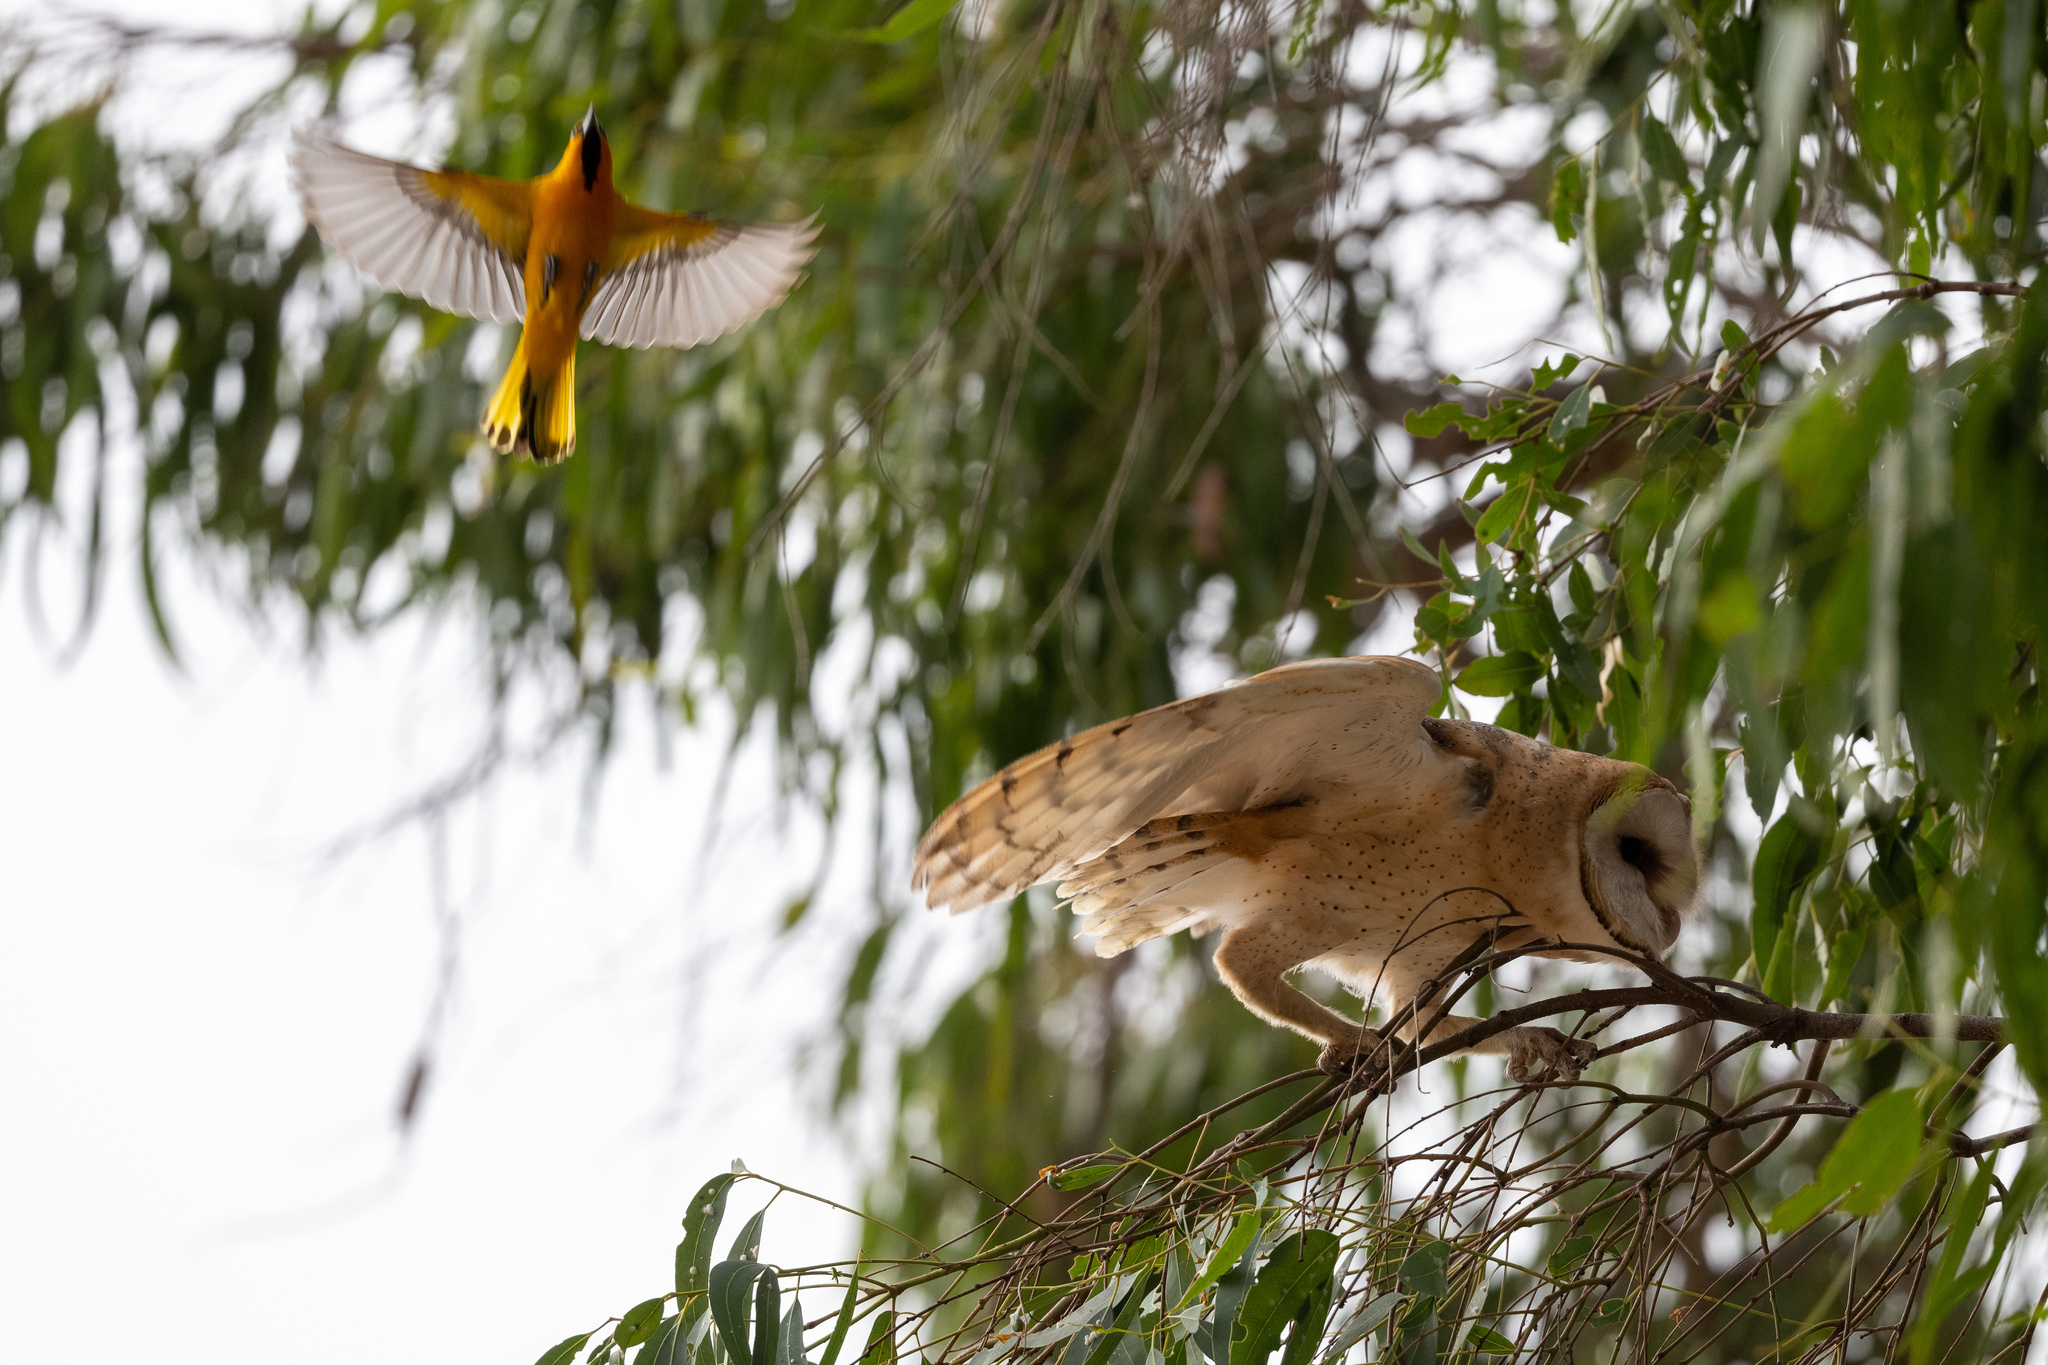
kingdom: Animalia
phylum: Chordata
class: Aves
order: Passeriformes
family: Icteridae
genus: Icterus
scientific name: Icterus bullockii
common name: Bullock's oriole
